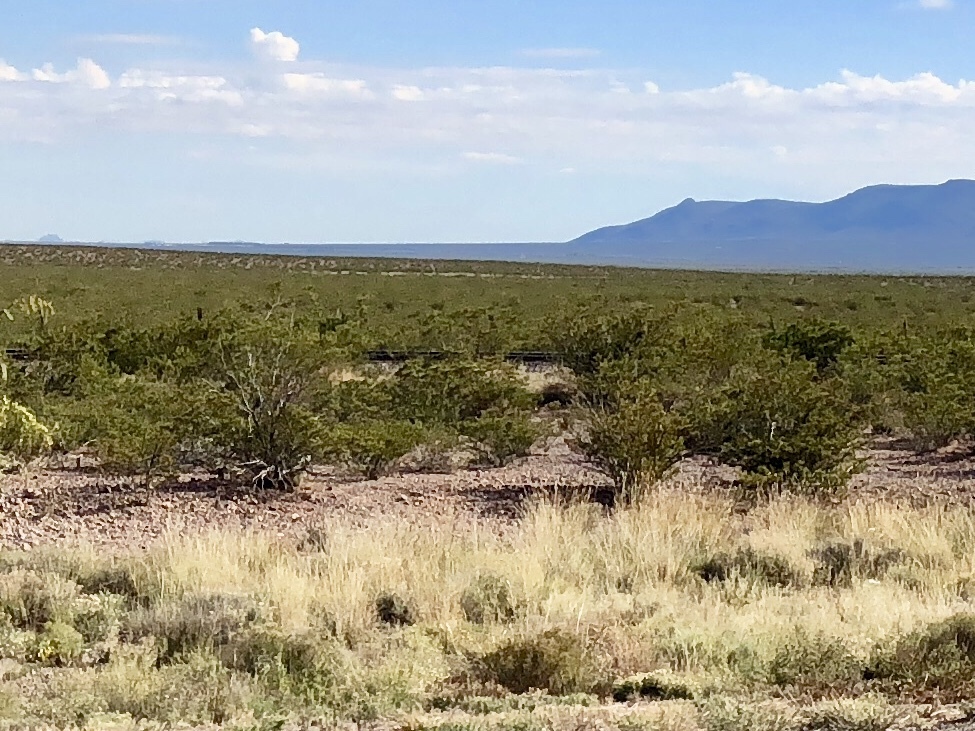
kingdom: Plantae
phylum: Tracheophyta
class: Magnoliopsida
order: Zygophyllales
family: Zygophyllaceae
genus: Larrea
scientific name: Larrea tridentata
